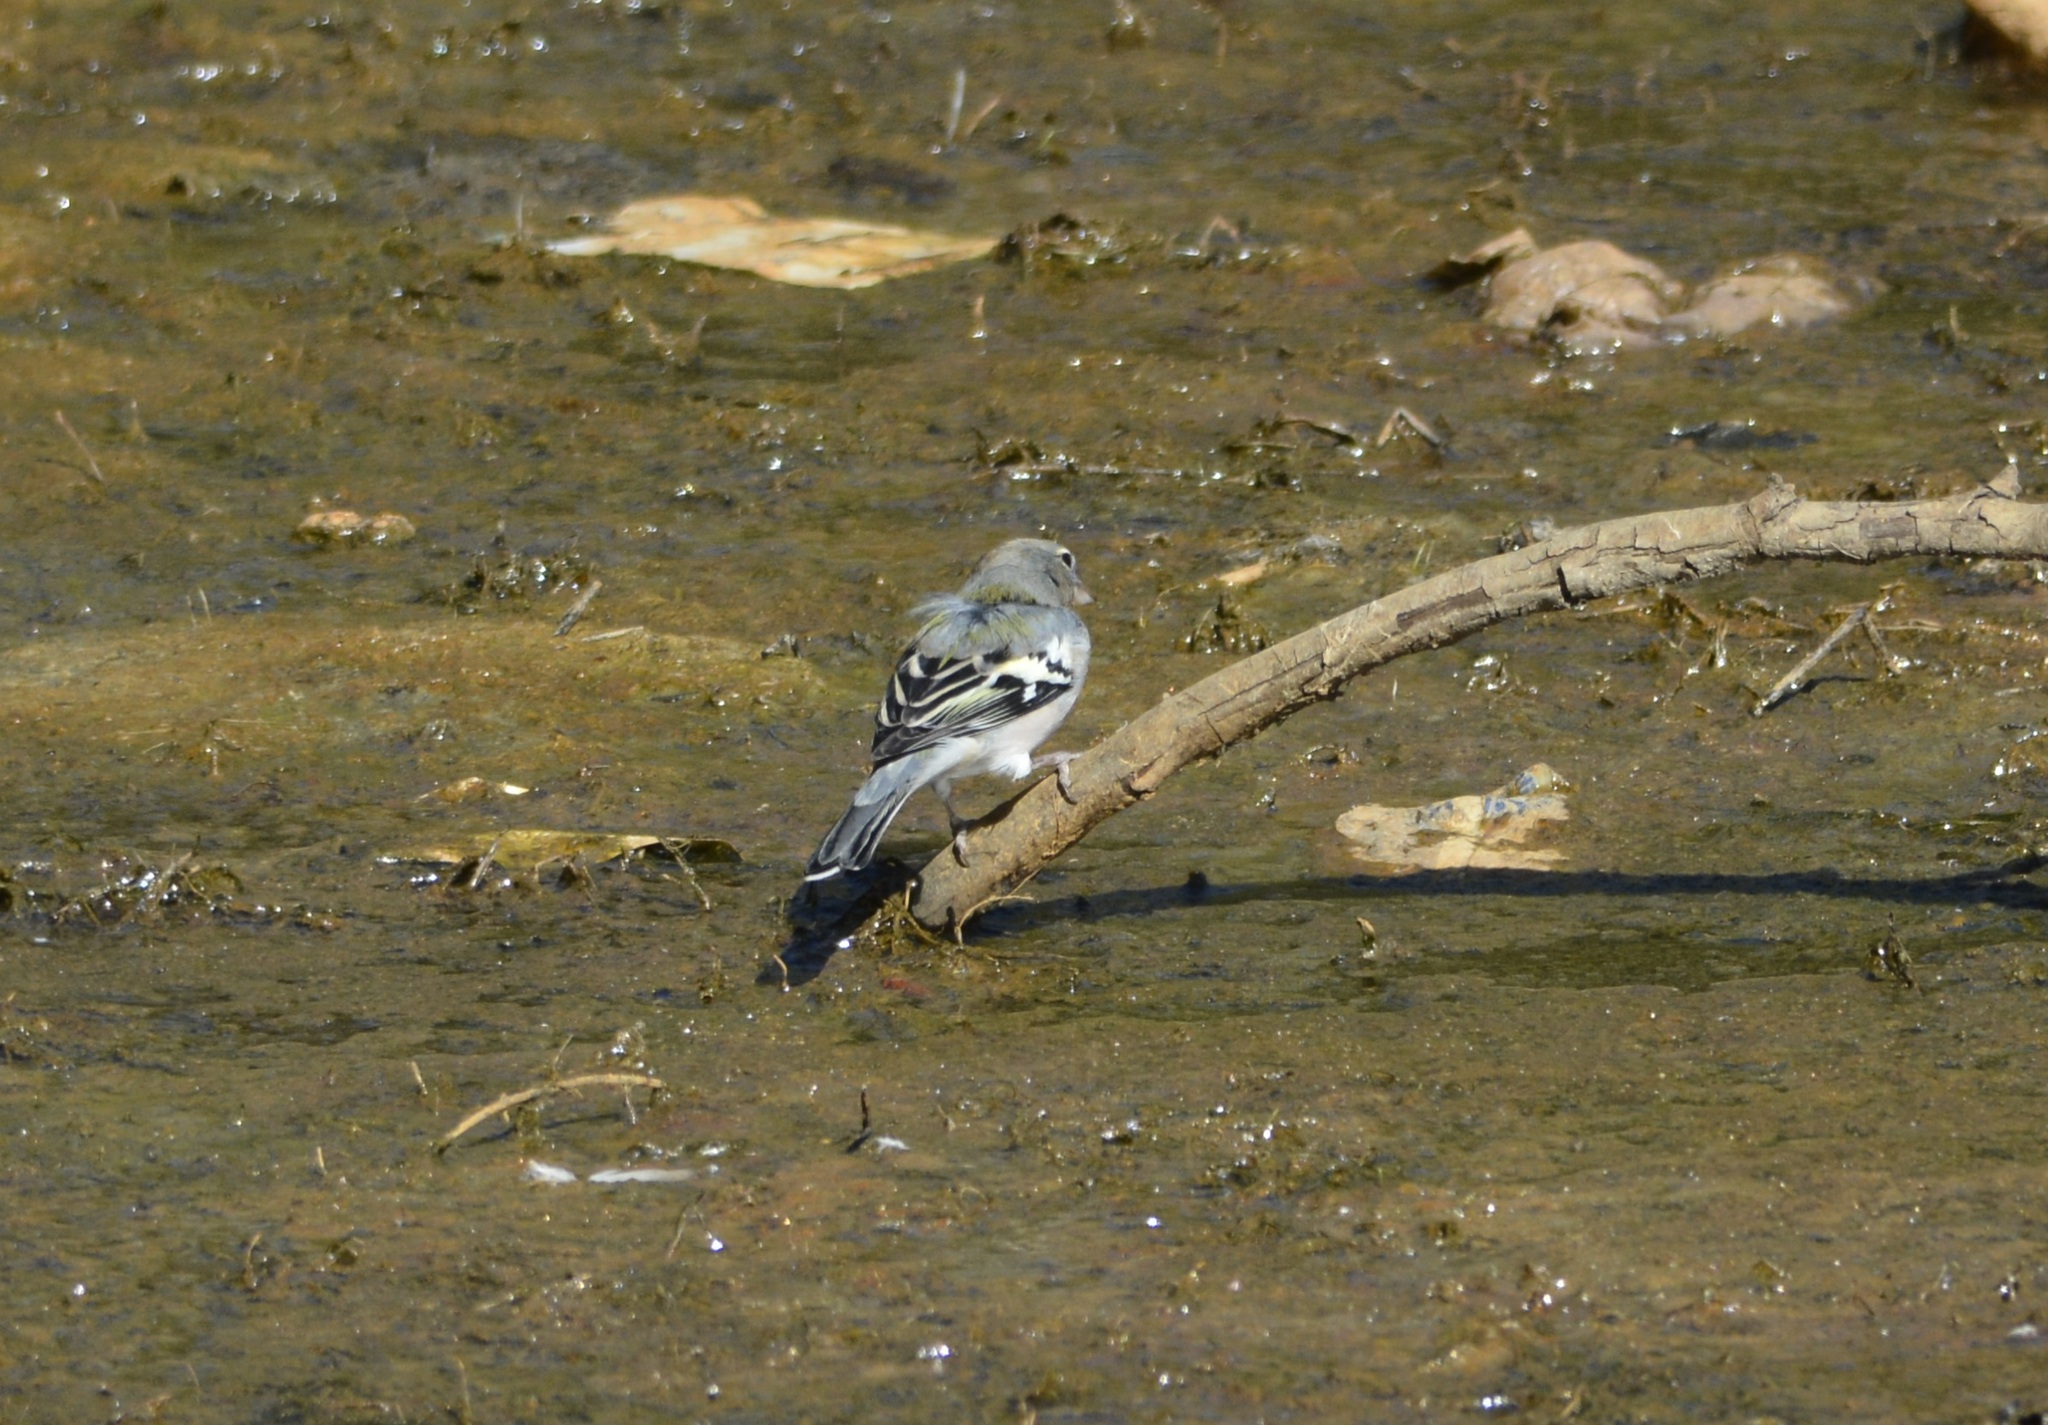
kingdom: Animalia
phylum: Chordata
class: Aves
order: Passeriformes
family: Fringillidae
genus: Fringilla
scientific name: Fringilla spodiogenys
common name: African chaffinch
